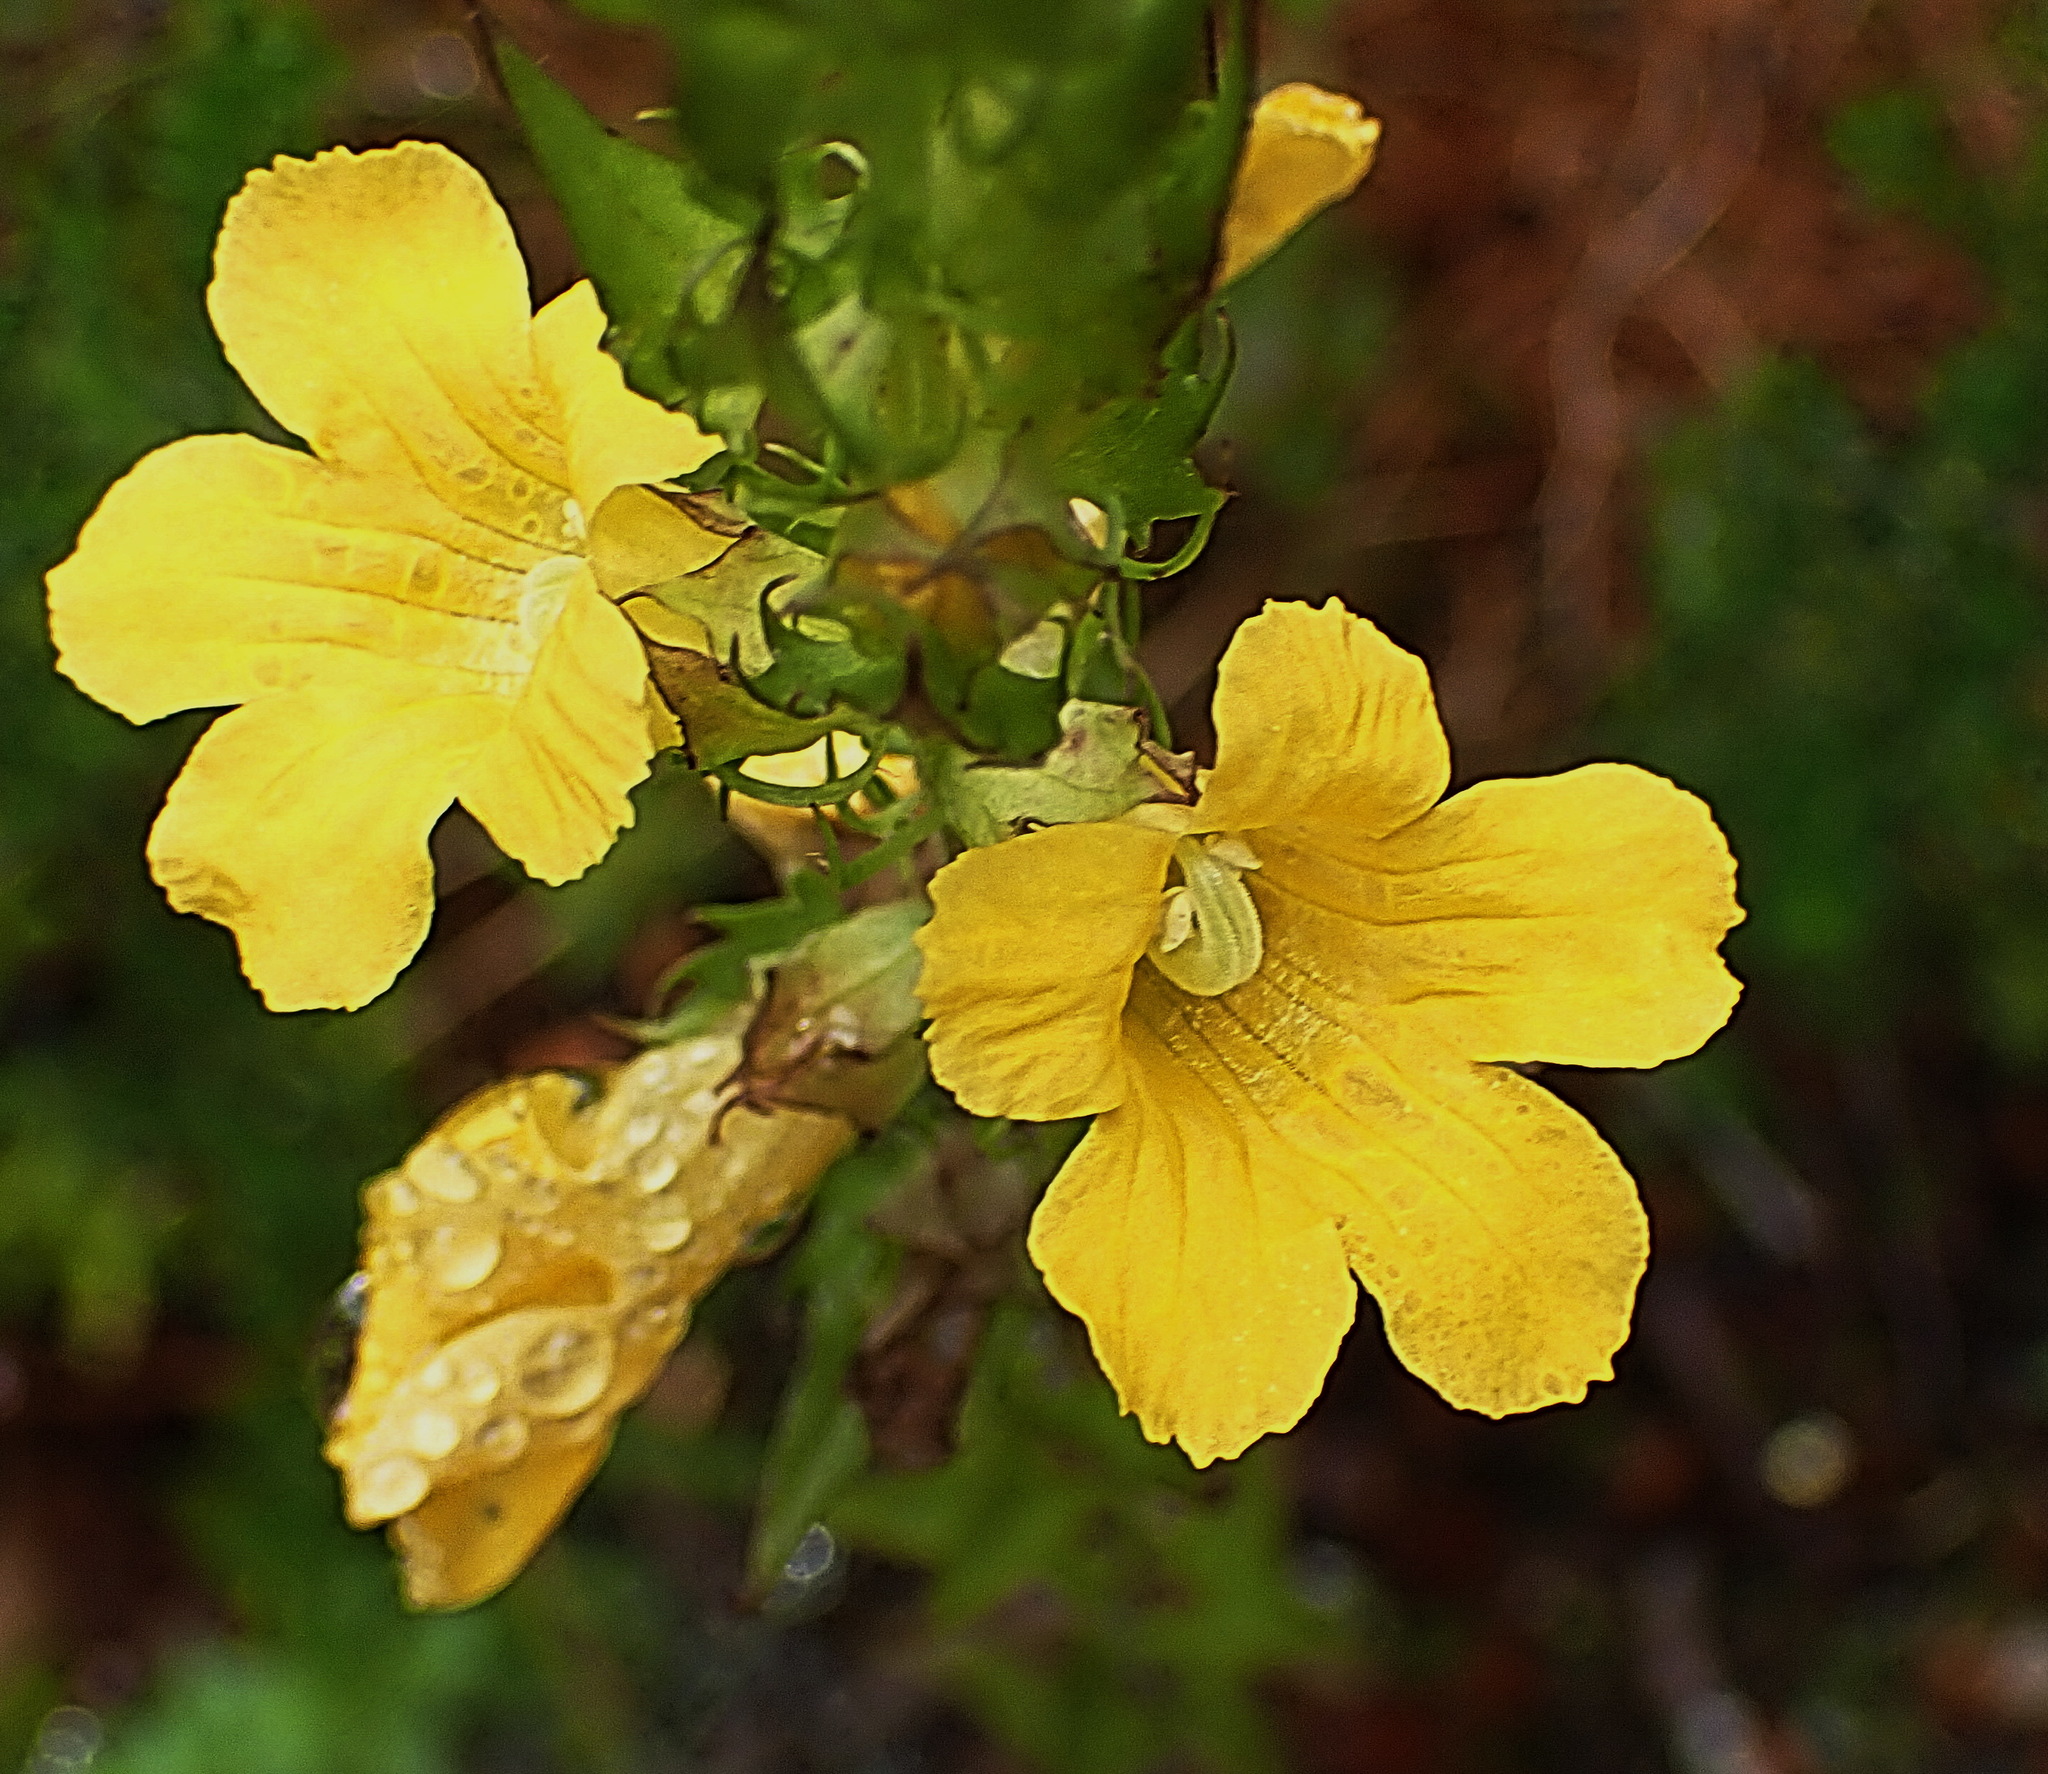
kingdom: Plantae
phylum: Tracheophyta
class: Magnoliopsida
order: Lamiales
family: Orobanchaceae
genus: Alectra
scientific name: Alectra sessiliflora
